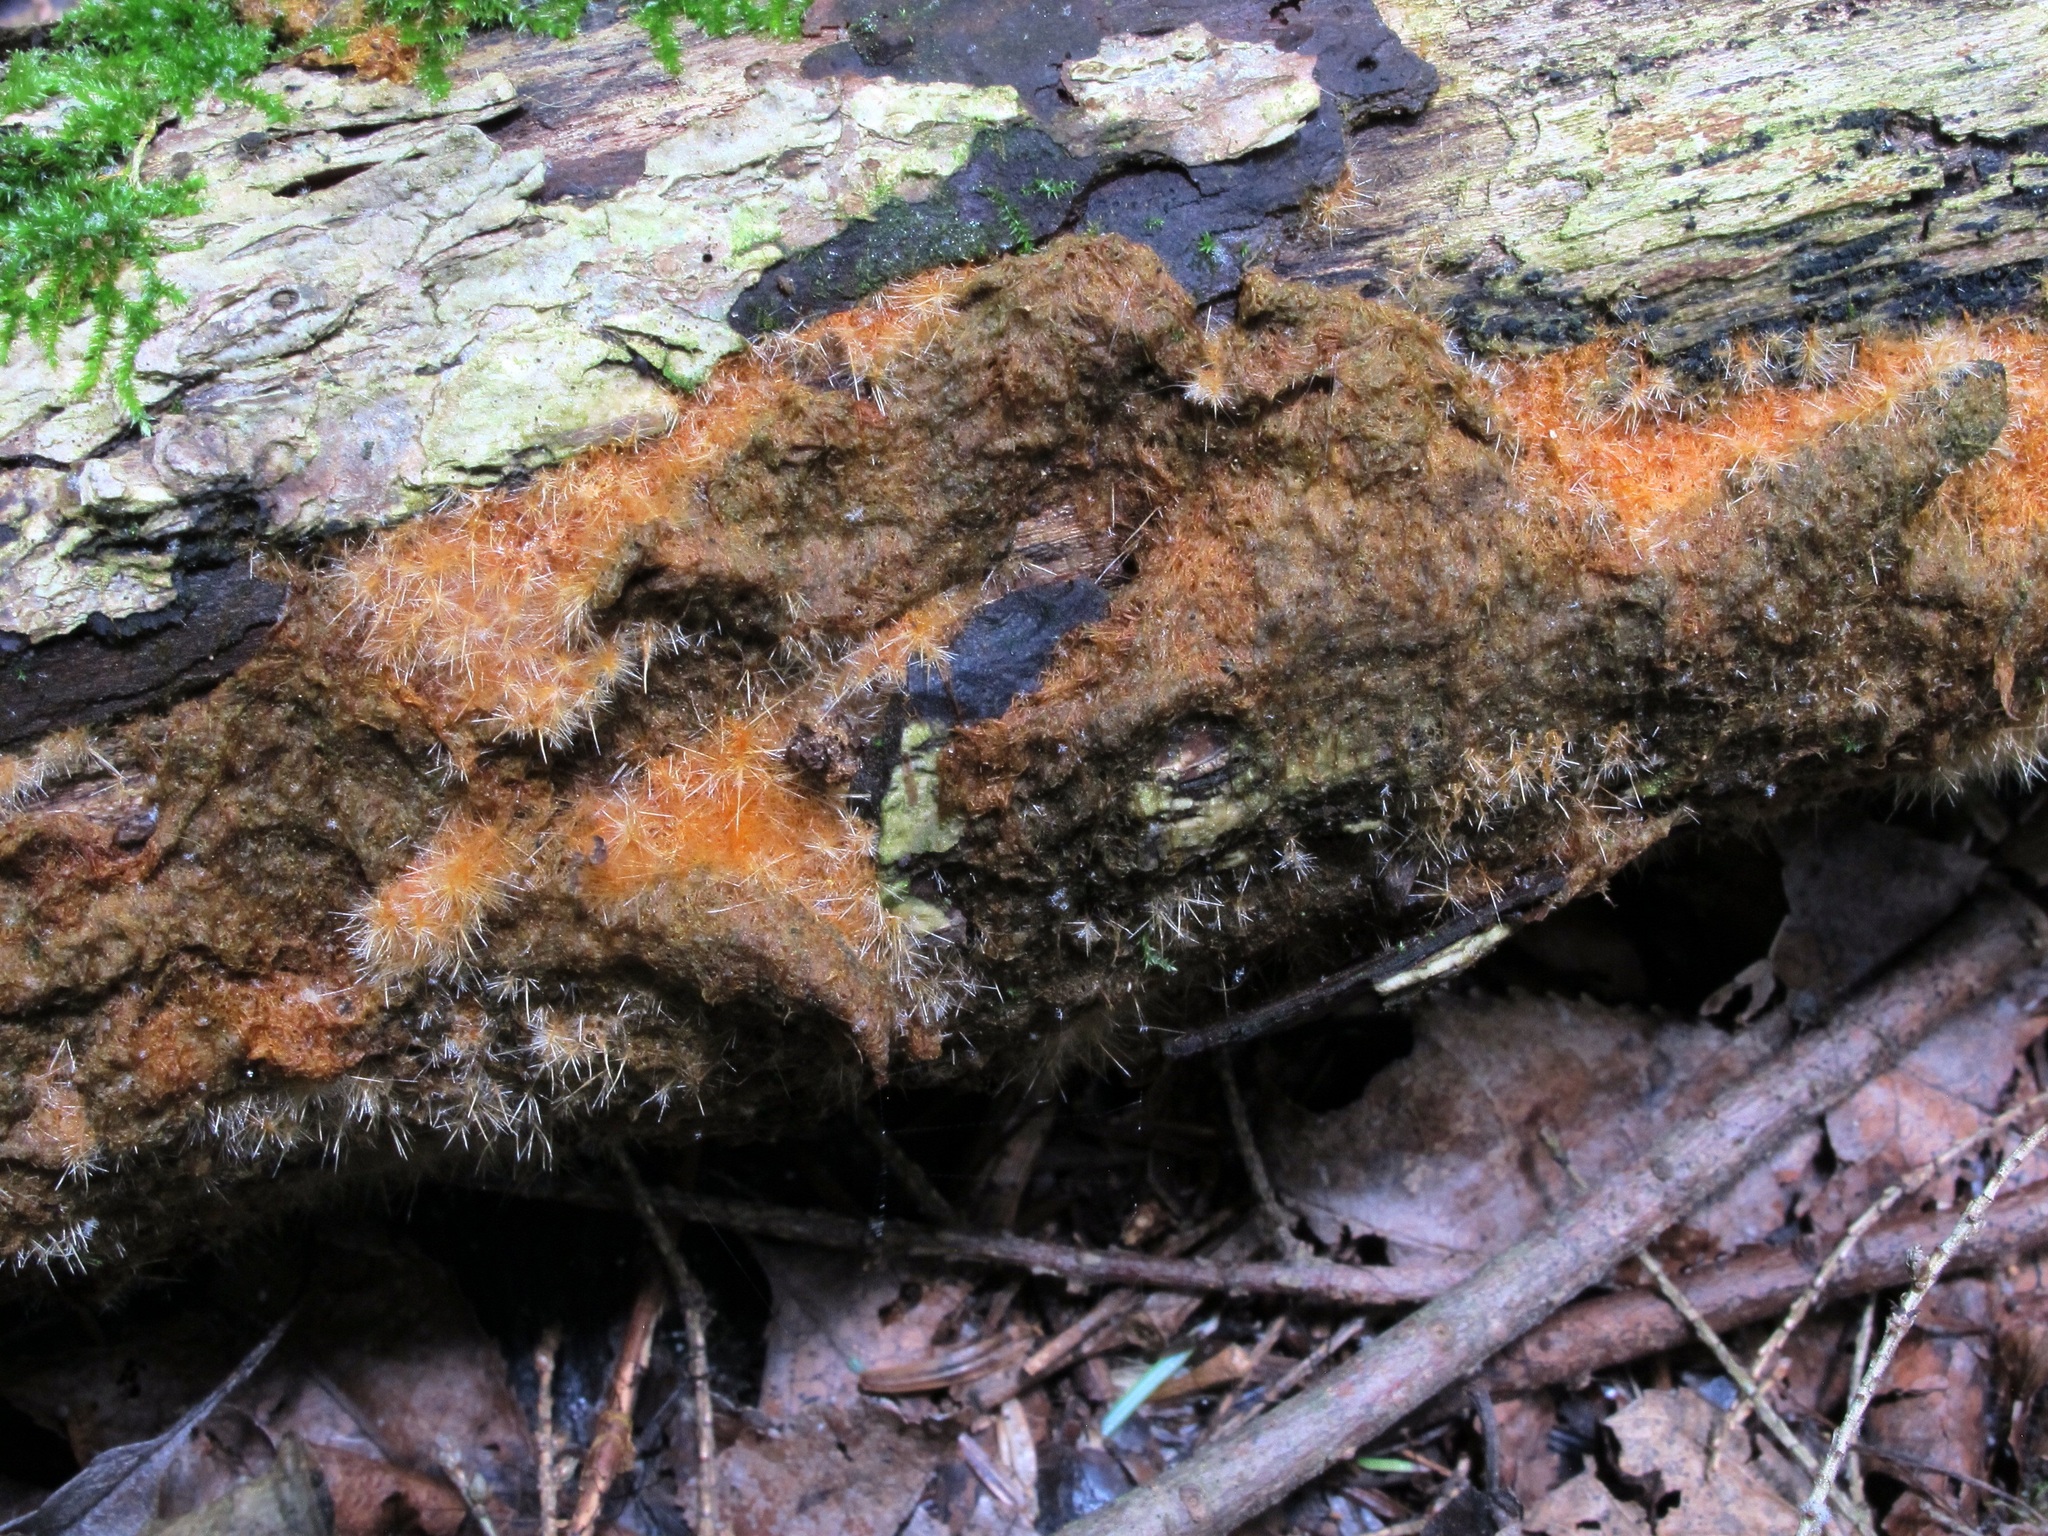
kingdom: Fungi
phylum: Ascomycota
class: Sordariomycetes
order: Hypocreales
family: Tilachlidiaceae
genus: Tilachlidium
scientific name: Tilachlidium brachiatum
